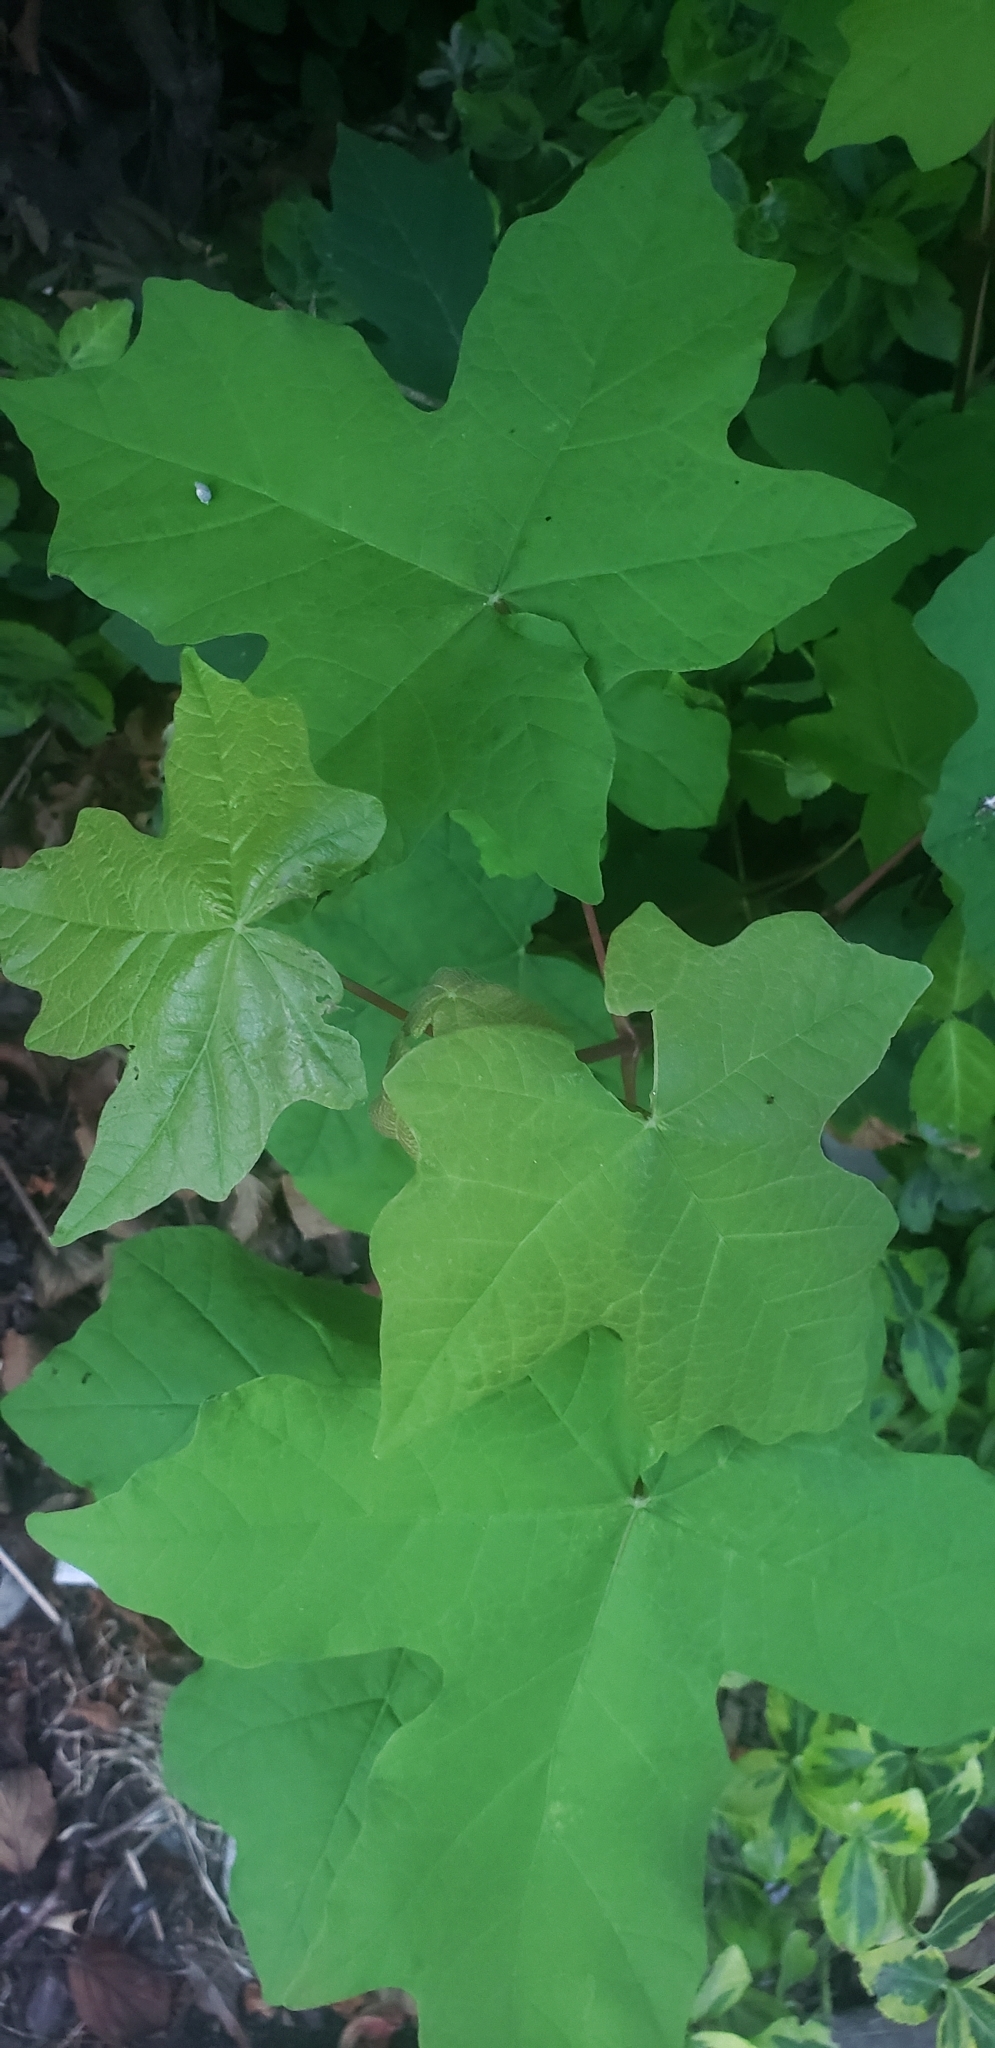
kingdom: Plantae
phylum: Tracheophyta
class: Magnoliopsida
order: Sapindales
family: Sapindaceae
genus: Acer
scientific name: Acer macrophyllum
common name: Oregon maple
